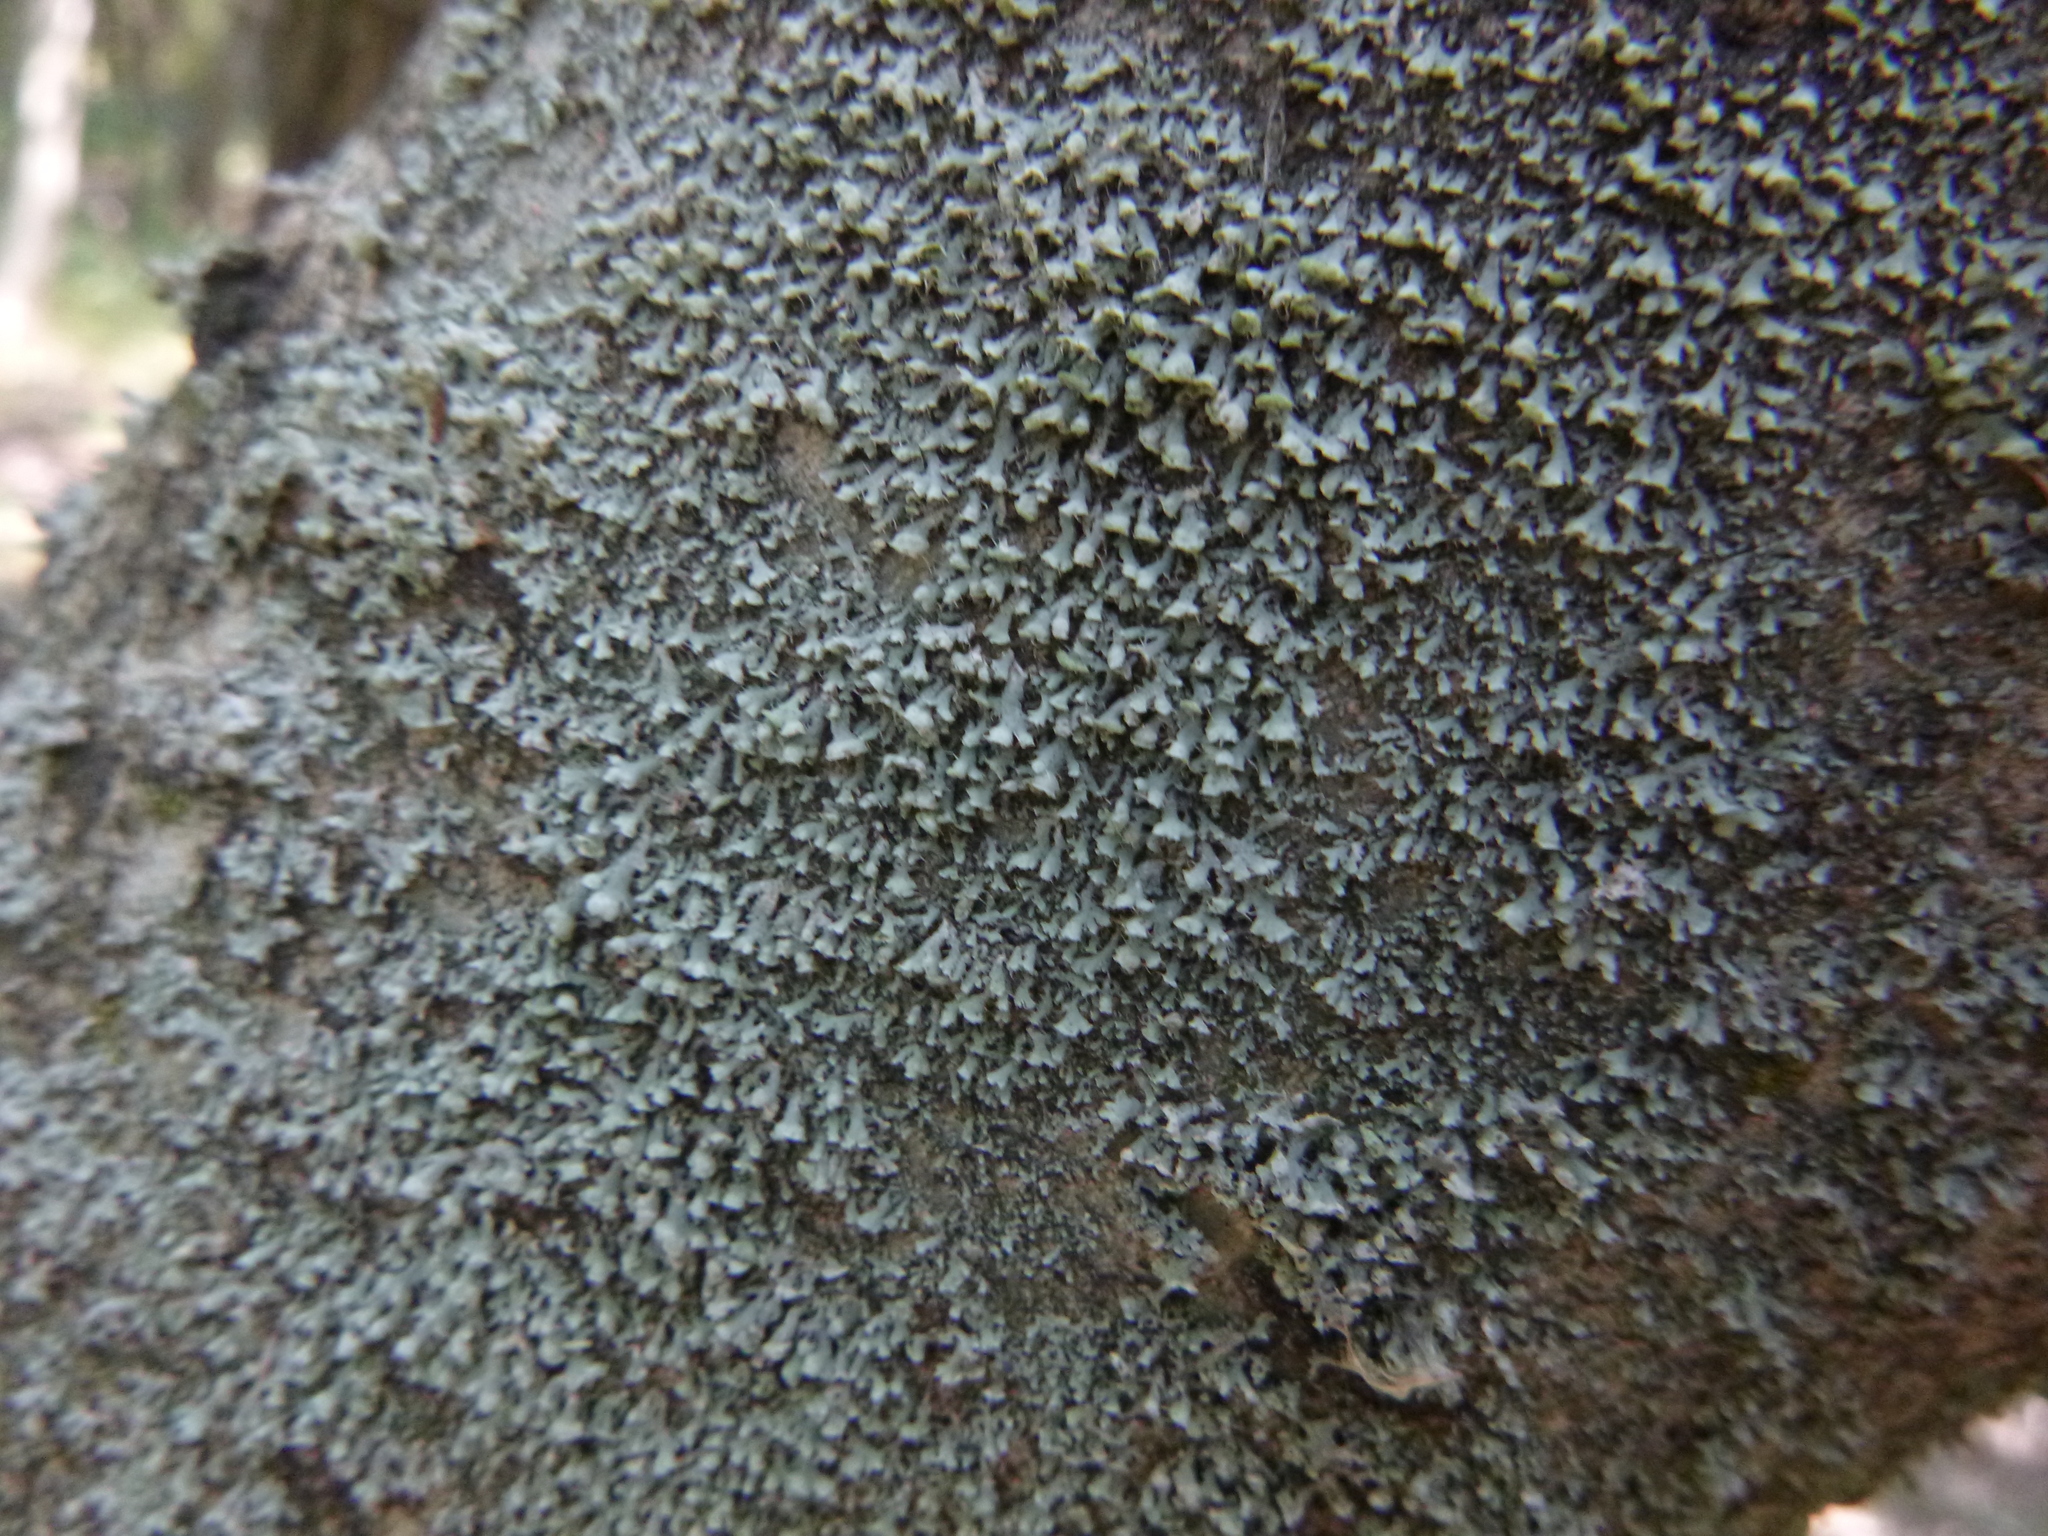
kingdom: Fungi
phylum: Ascomycota
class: Lecanoromycetes
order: Caliciales
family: Physciaceae
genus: Physcia
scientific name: Physcia adscendens
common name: Hooded rosette lichen
